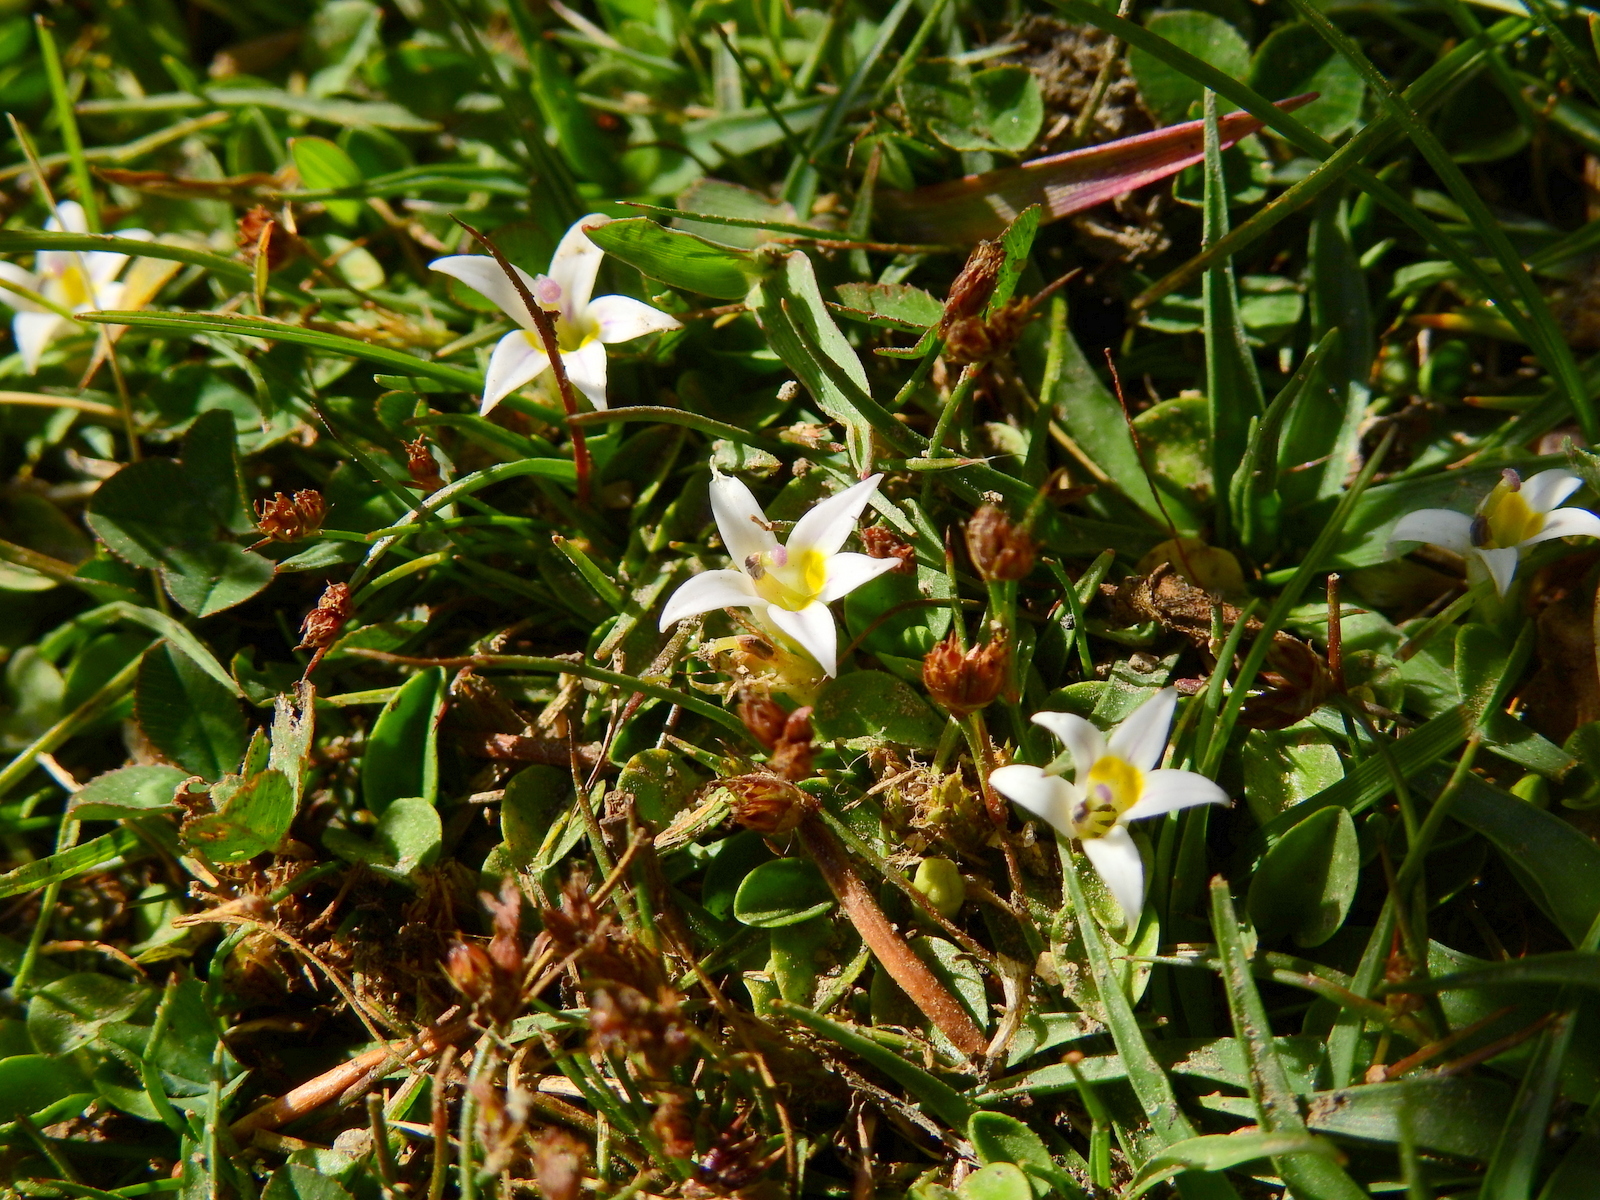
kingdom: Plantae
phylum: Tracheophyta
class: Magnoliopsida
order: Asterales
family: Campanulaceae
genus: Lobelia
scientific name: Lobelia oligophylla
